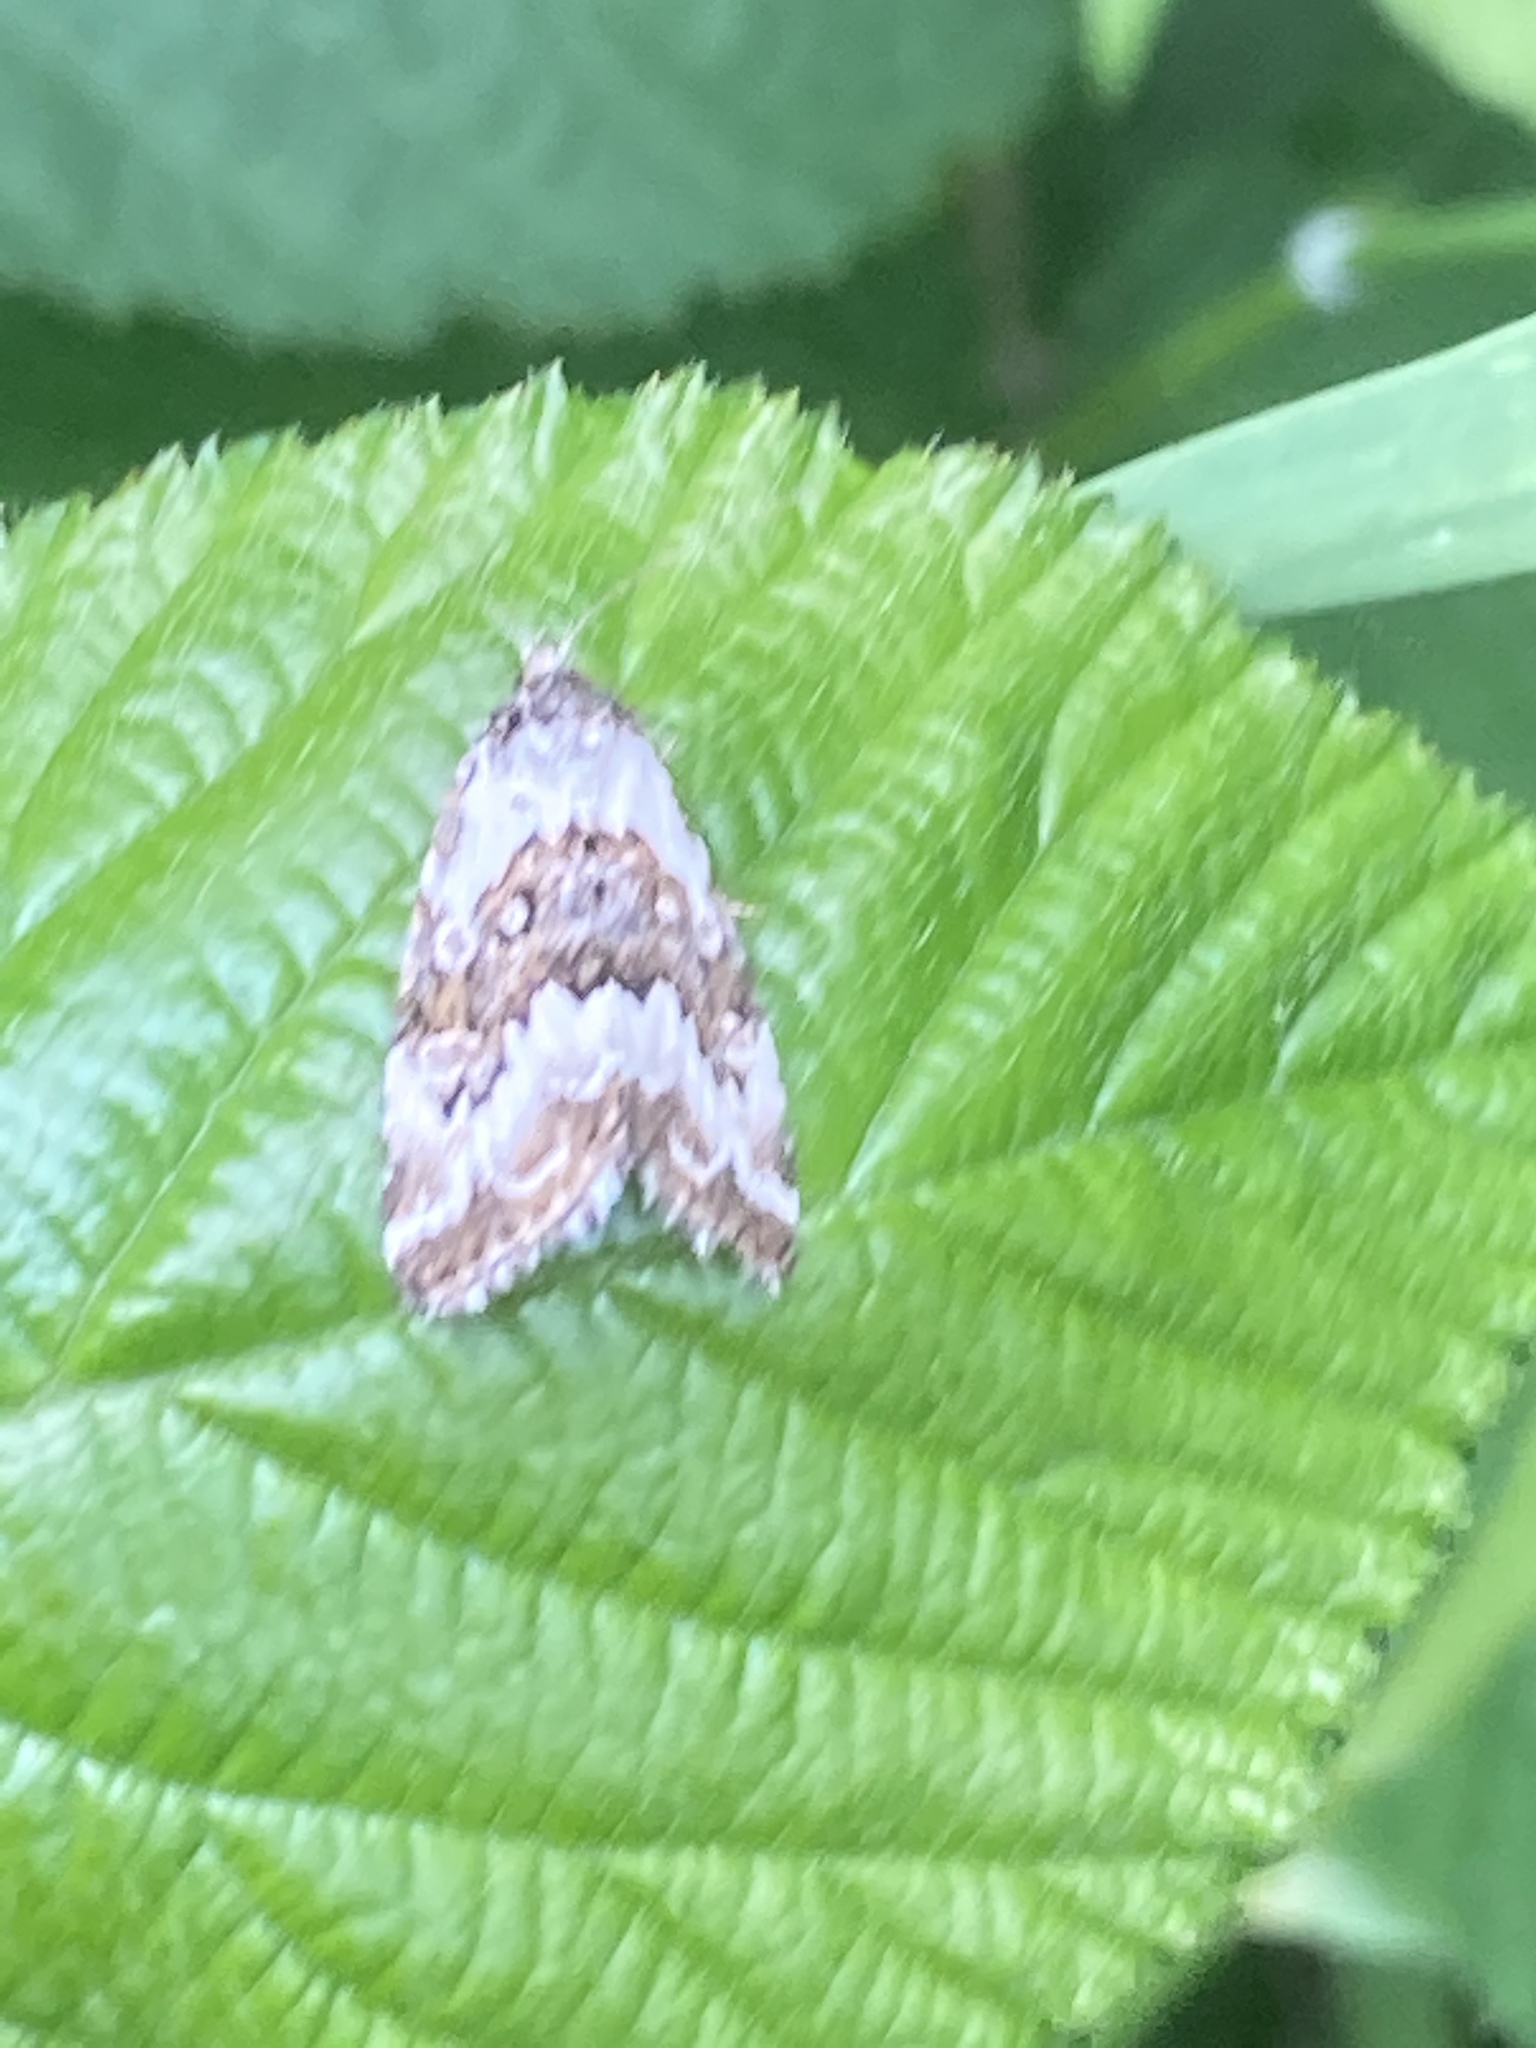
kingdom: Animalia
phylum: Arthropoda
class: Insecta
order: Lepidoptera
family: Noctuidae
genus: Deltote
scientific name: Deltote pygarga
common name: Marbled white spot
